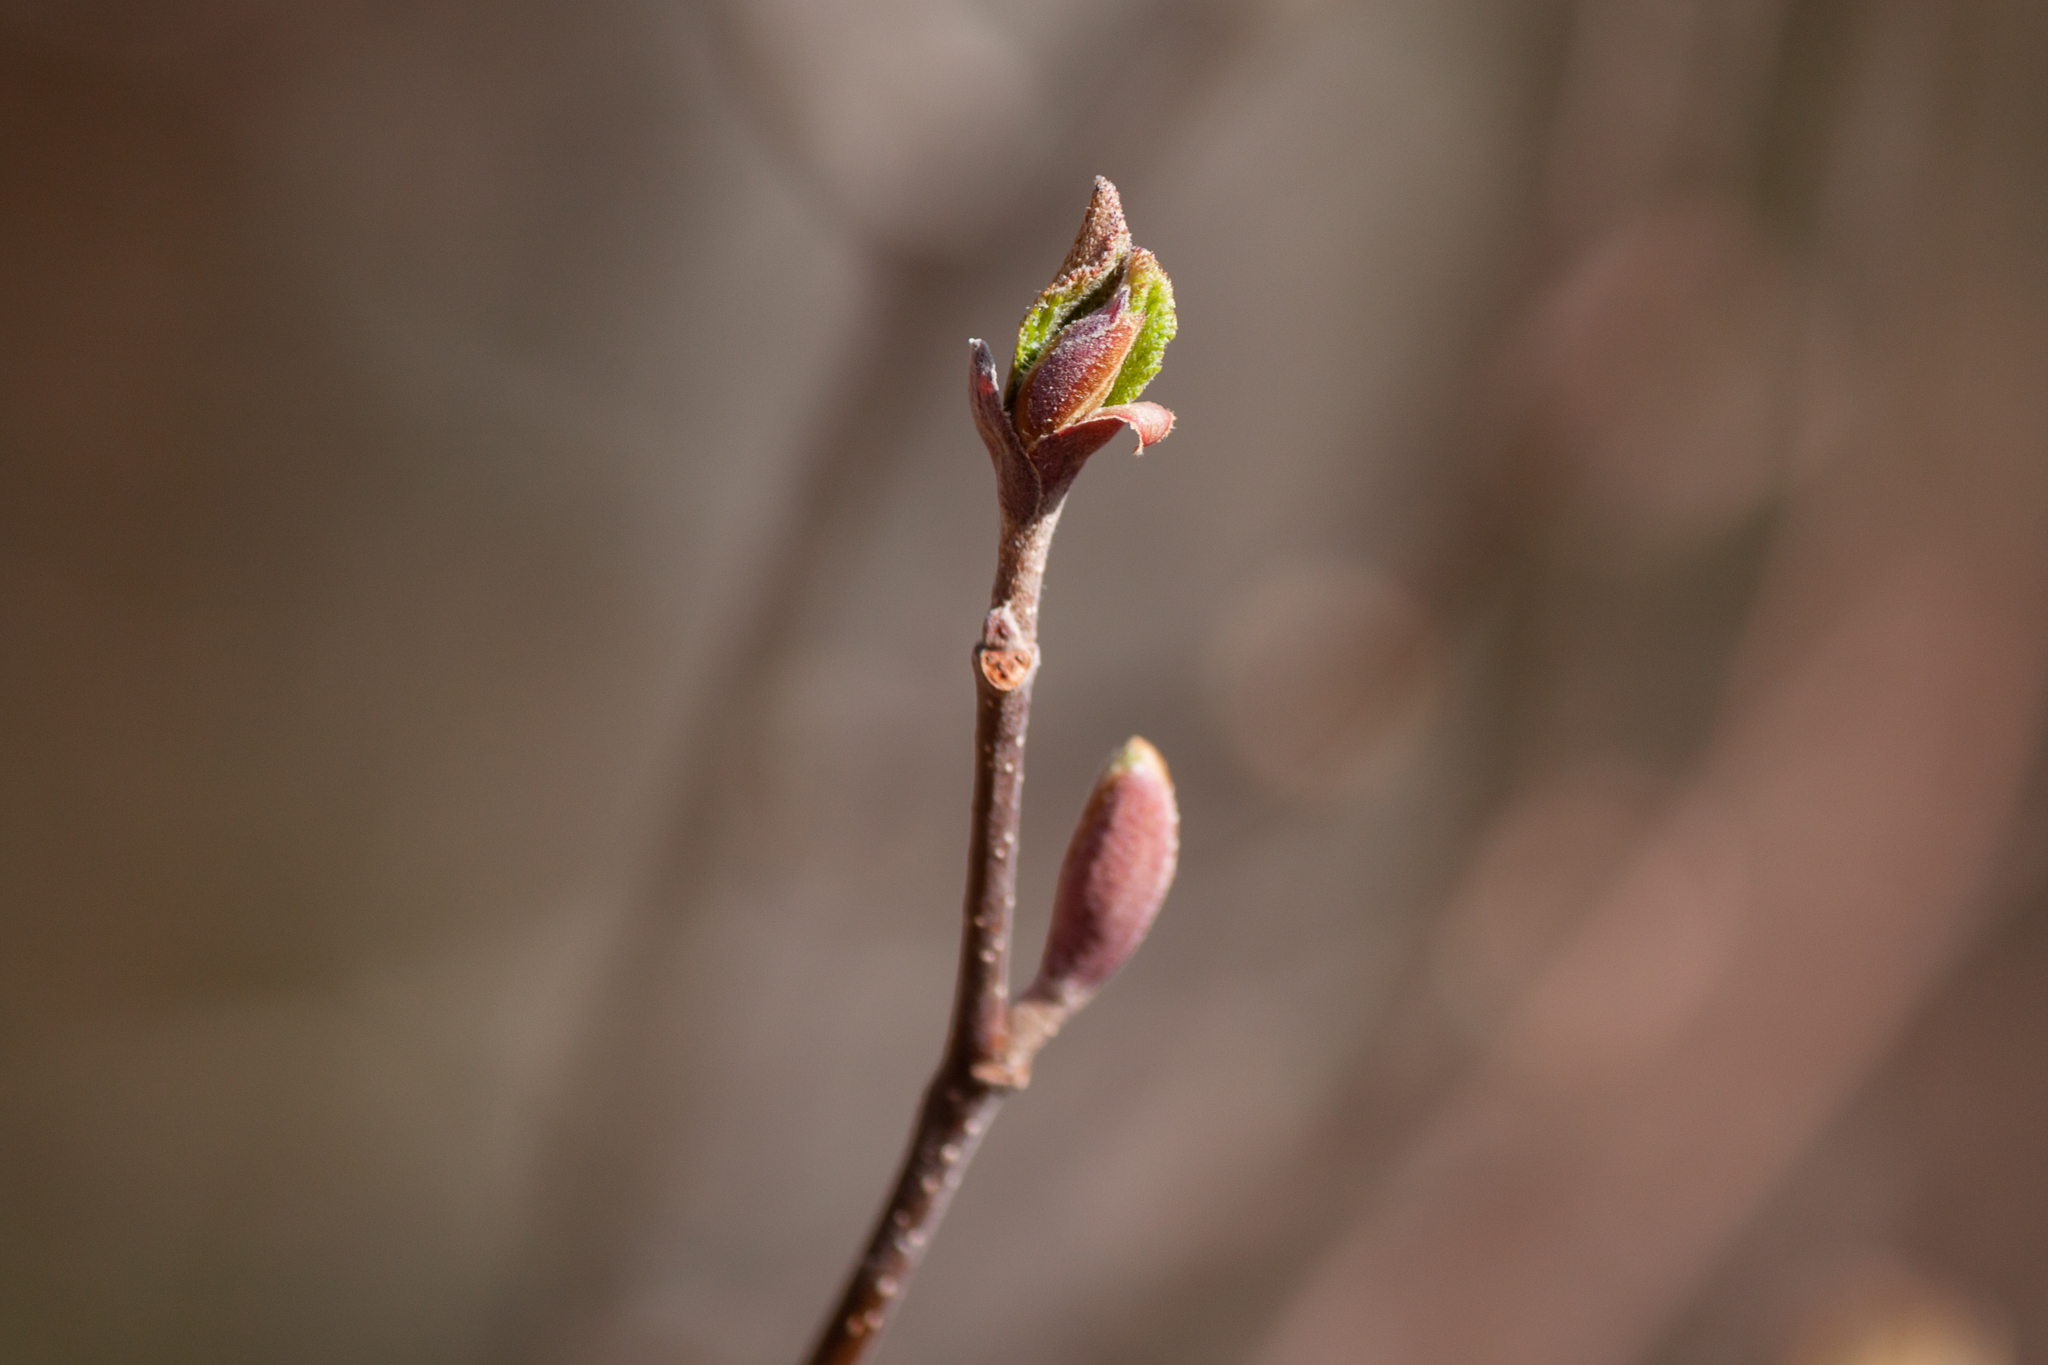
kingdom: Plantae
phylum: Tracheophyta
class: Magnoliopsida
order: Fagales
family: Betulaceae
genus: Alnus
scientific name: Alnus incana
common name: Grey alder
